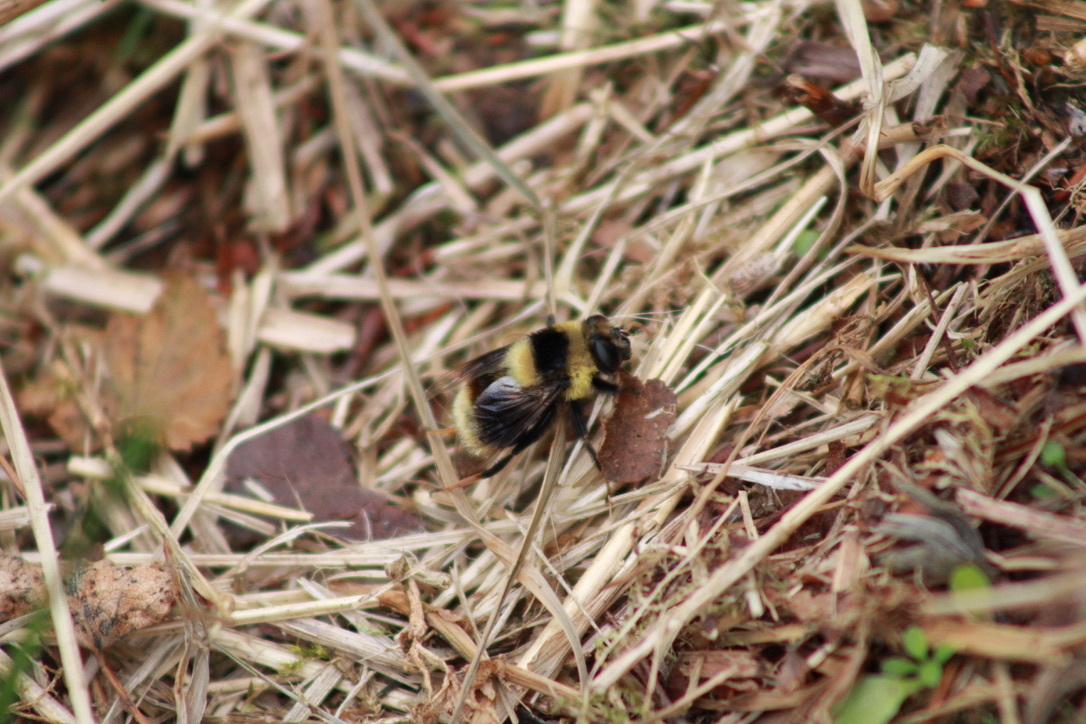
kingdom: Animalia
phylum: Arthropoda
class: Insecta
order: Diptera
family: Syrphidae
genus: Eristalis
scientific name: Eristalis flavipes
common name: Orange-legged drone fly
